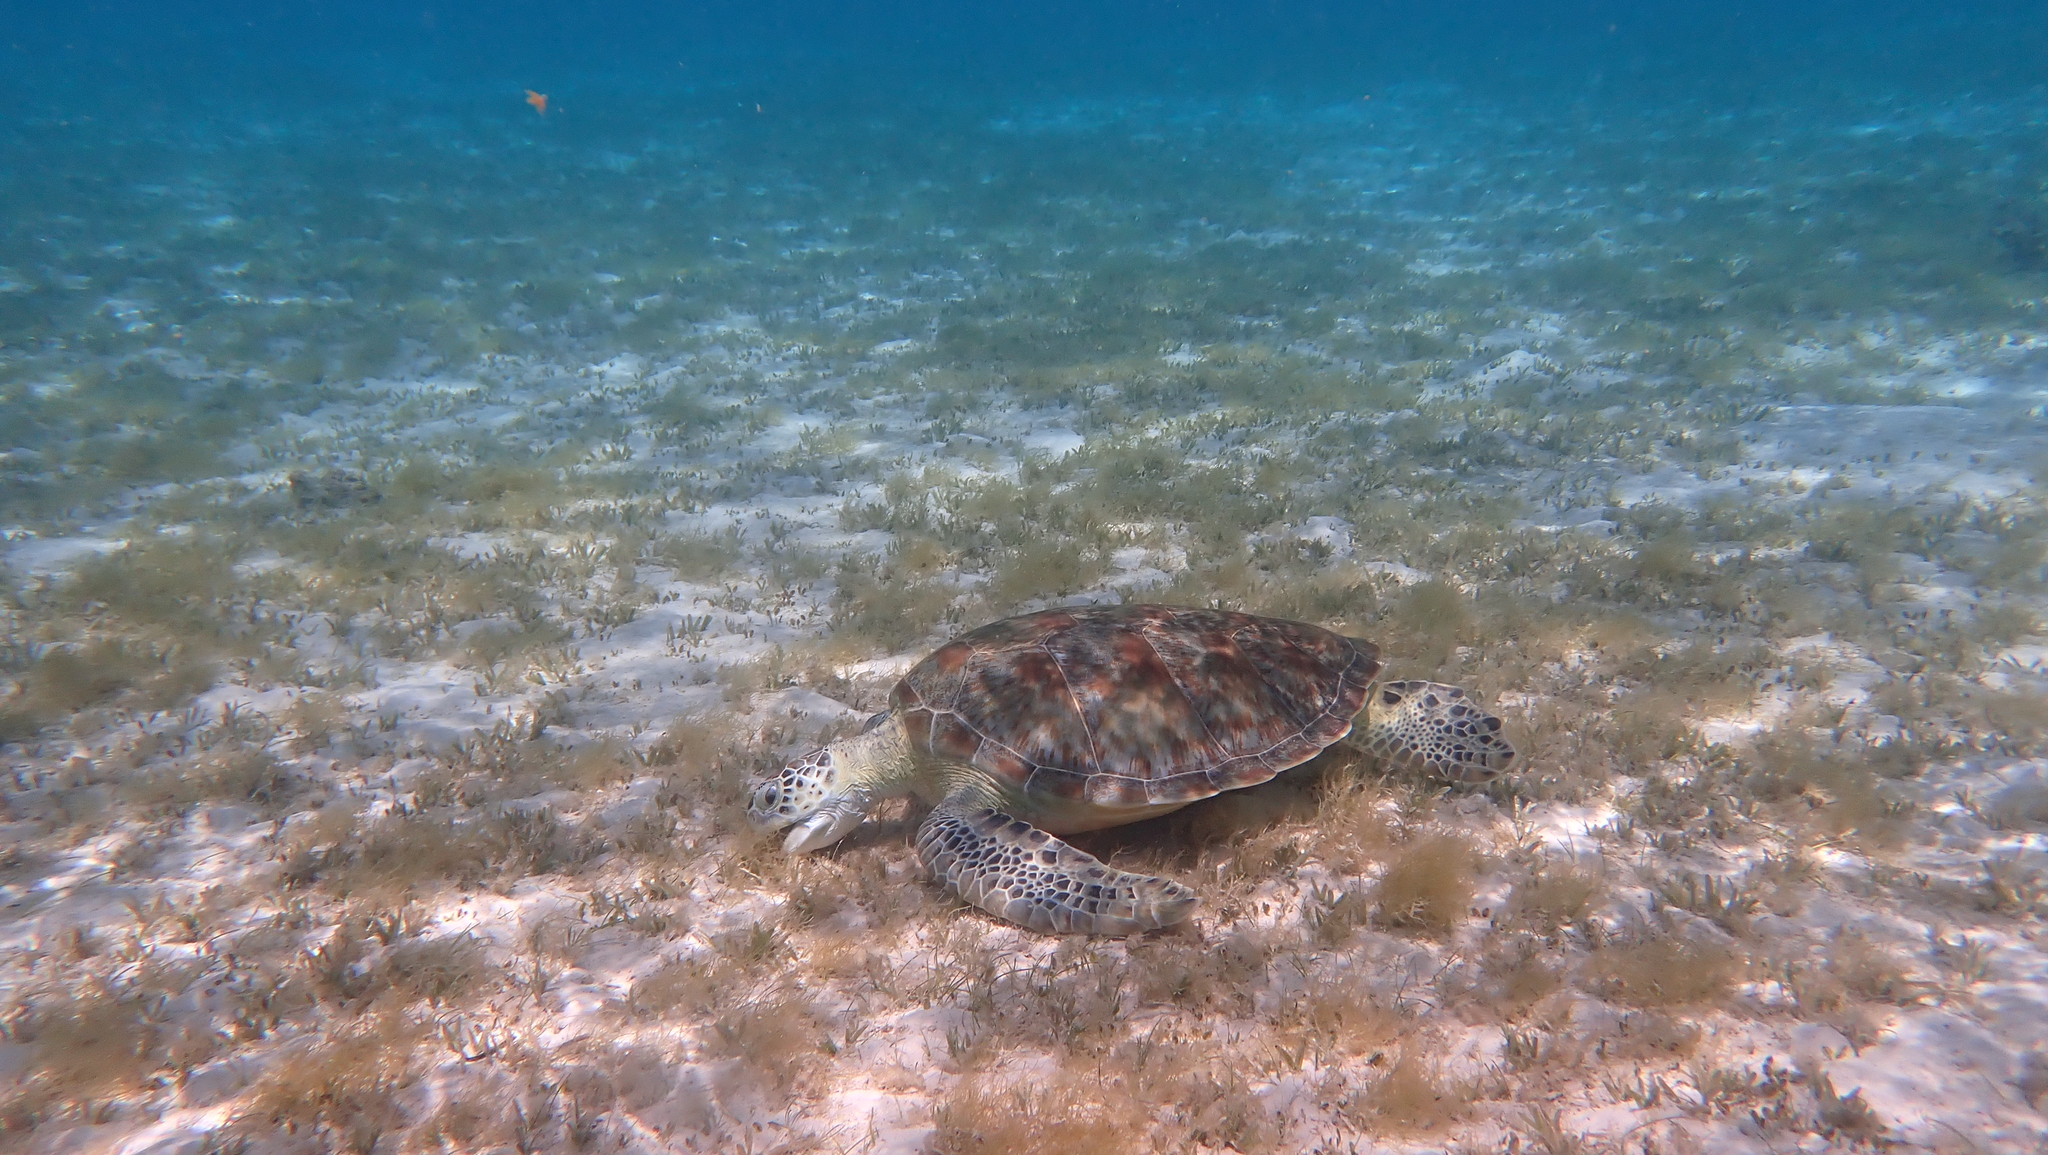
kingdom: Animalia
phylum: Chordata
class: Testudines
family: Cheloniidae
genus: Chelonia
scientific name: Chelonia mydas
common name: Green turtle
